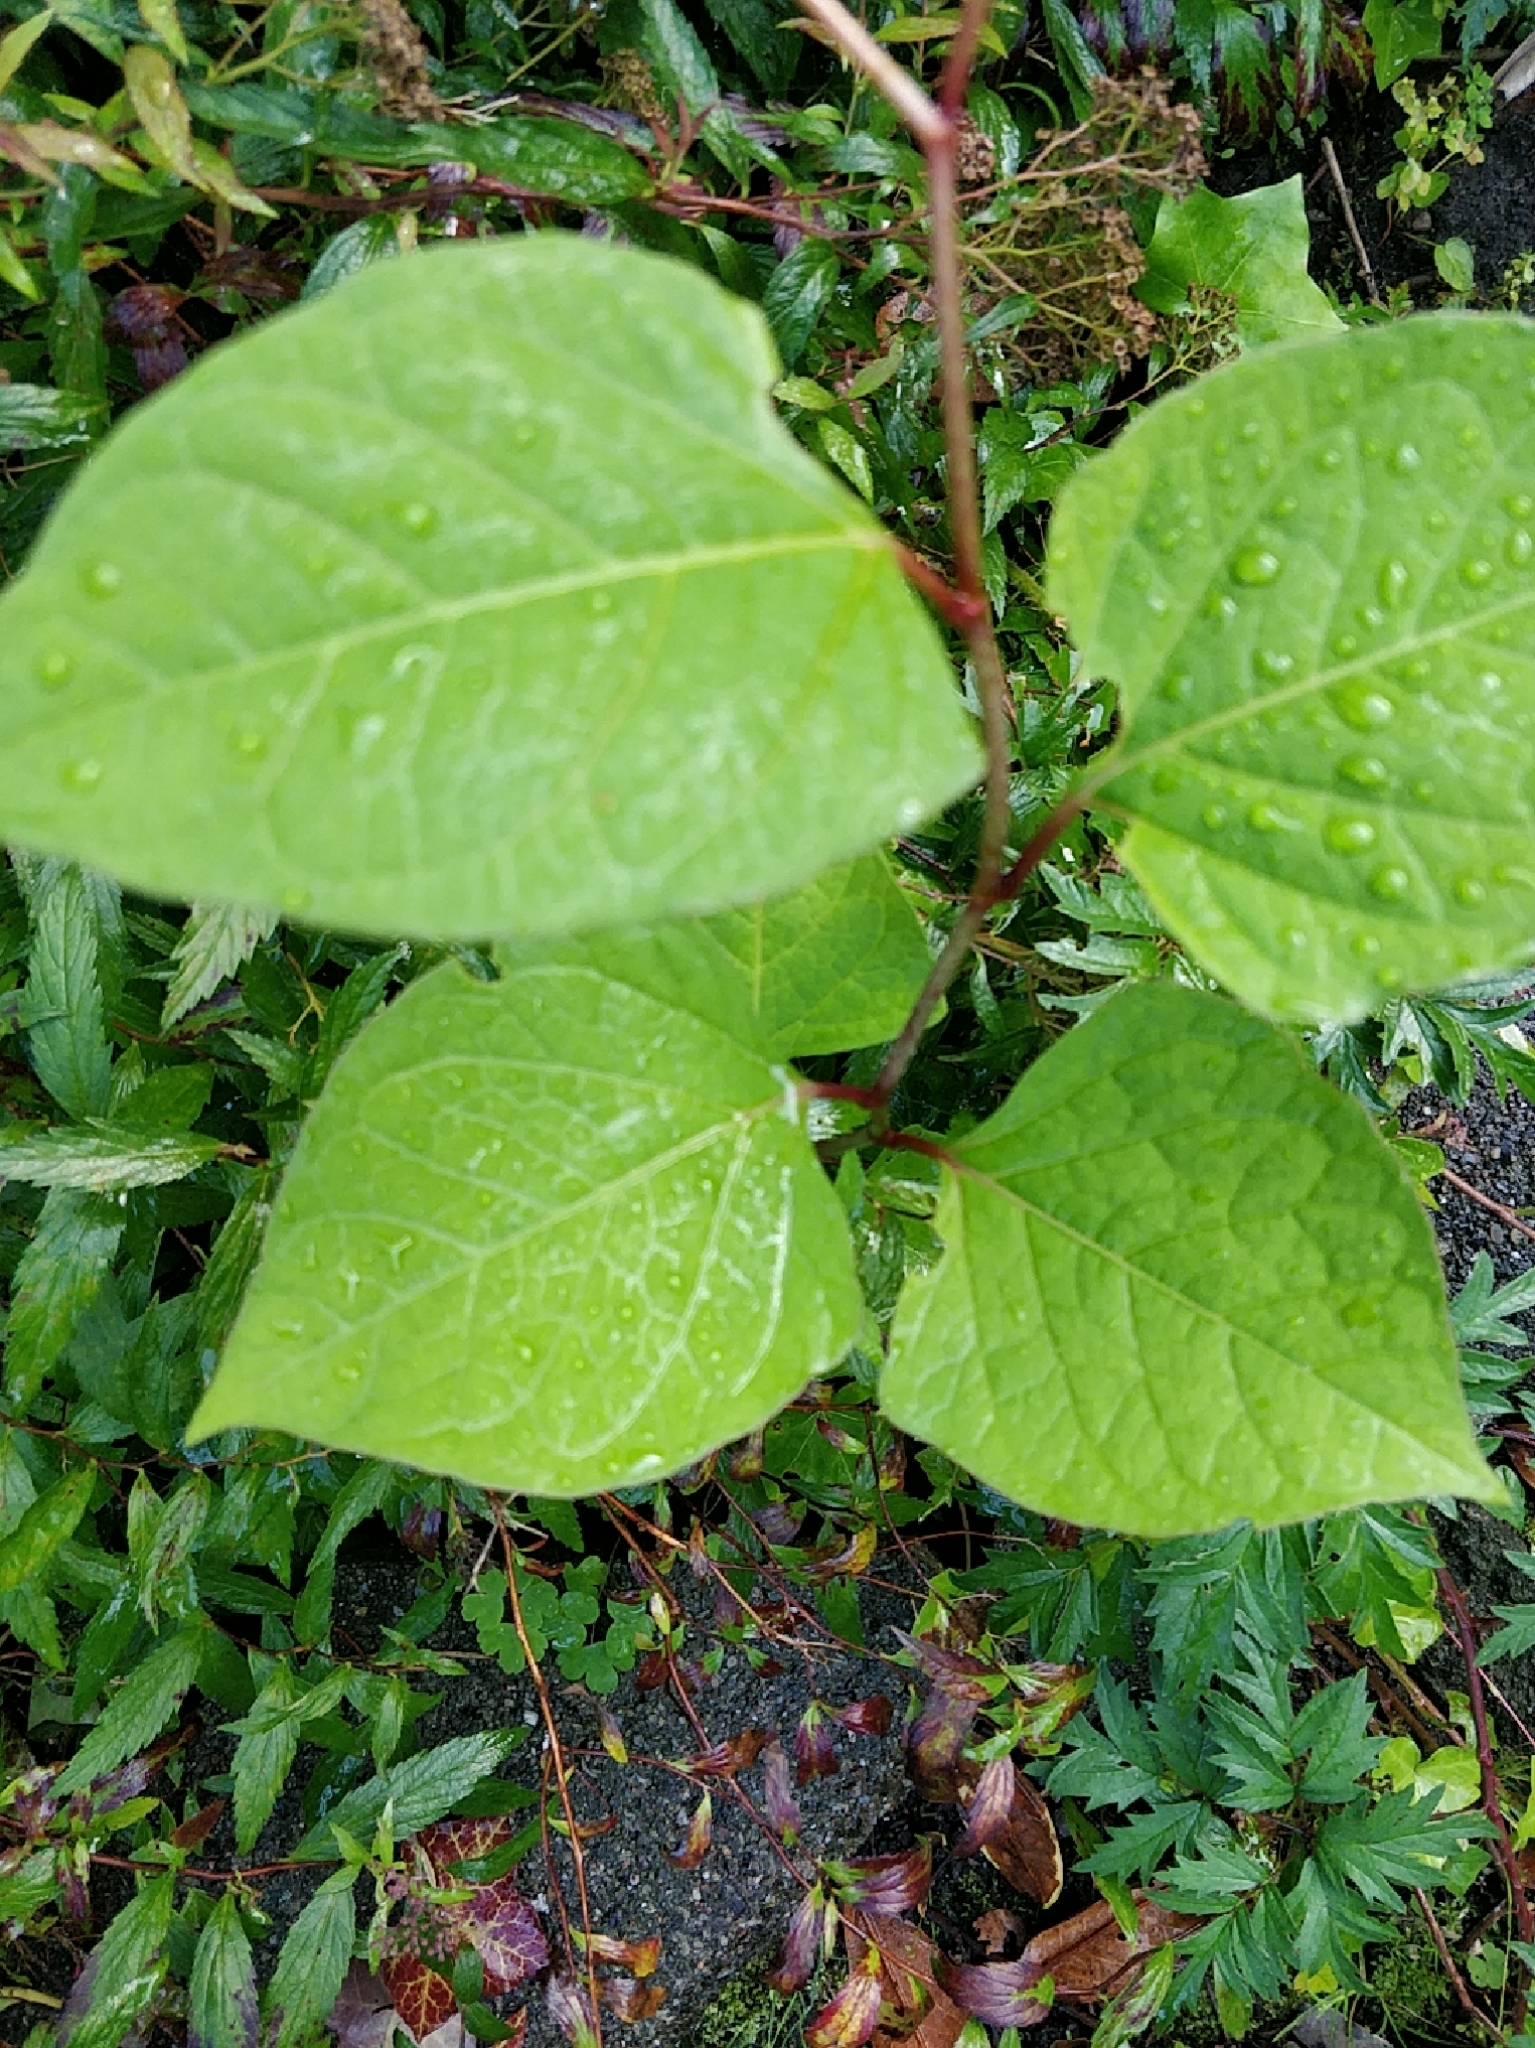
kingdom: Plantae
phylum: Tracheophyta
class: Magnoliopsida
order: Caryophyllales
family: Polygonaceae
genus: Reynoutria
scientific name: Reynoutria japonica
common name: Japanese knotweed
